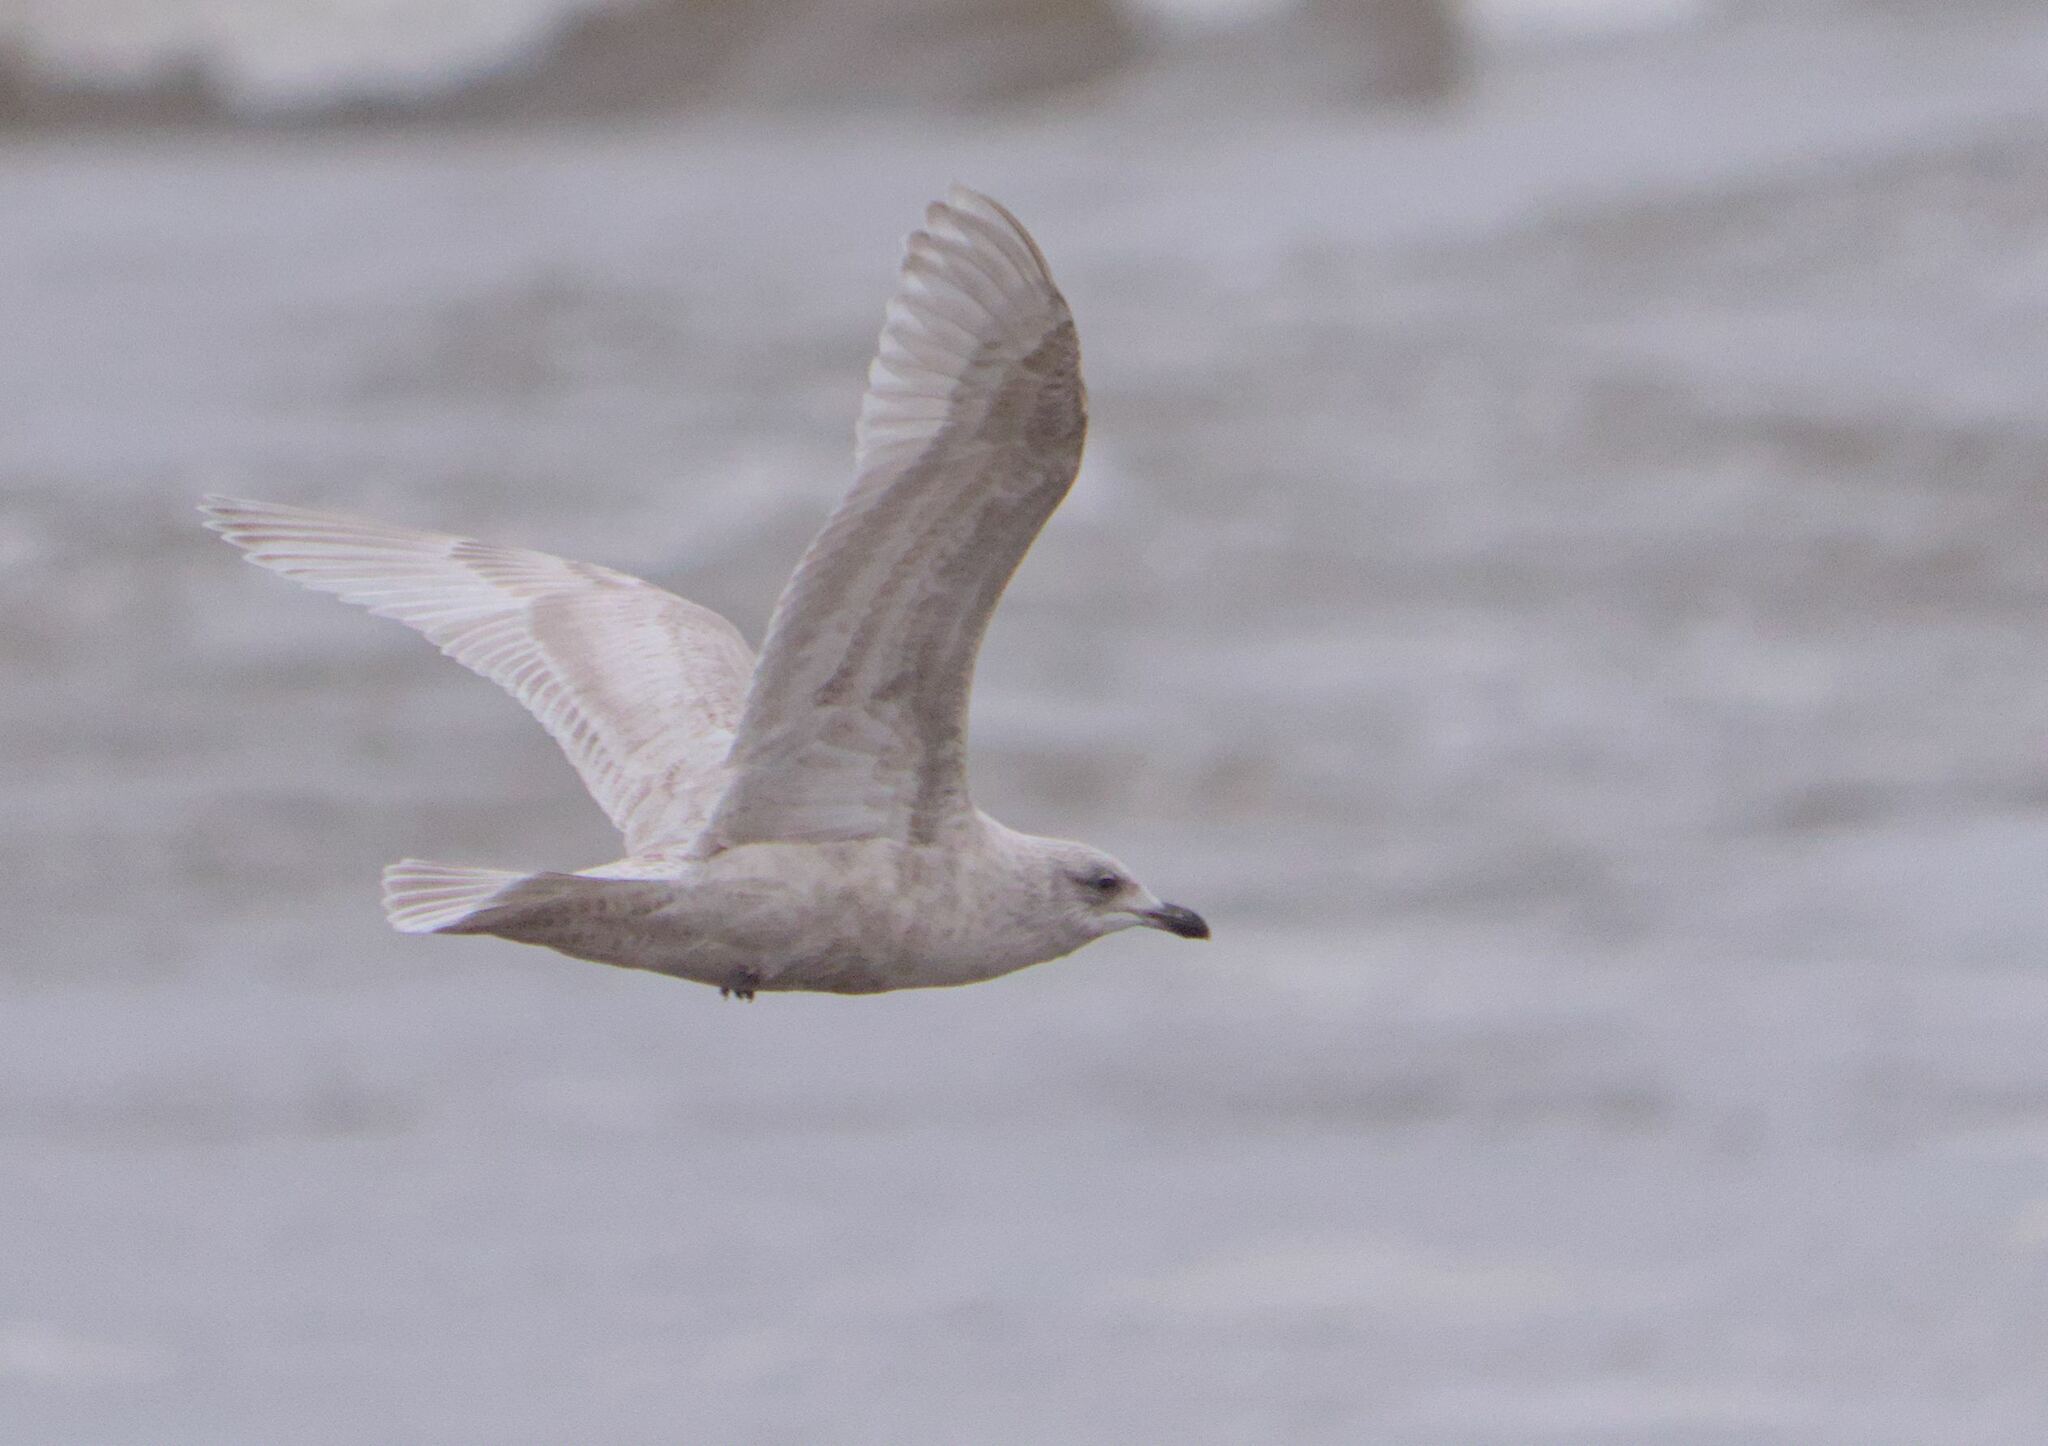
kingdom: Animalia
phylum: Chordata
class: Aves
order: Charadriiformes
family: Laridae
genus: Larus
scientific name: Larus glaucoides
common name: Iceland gull
